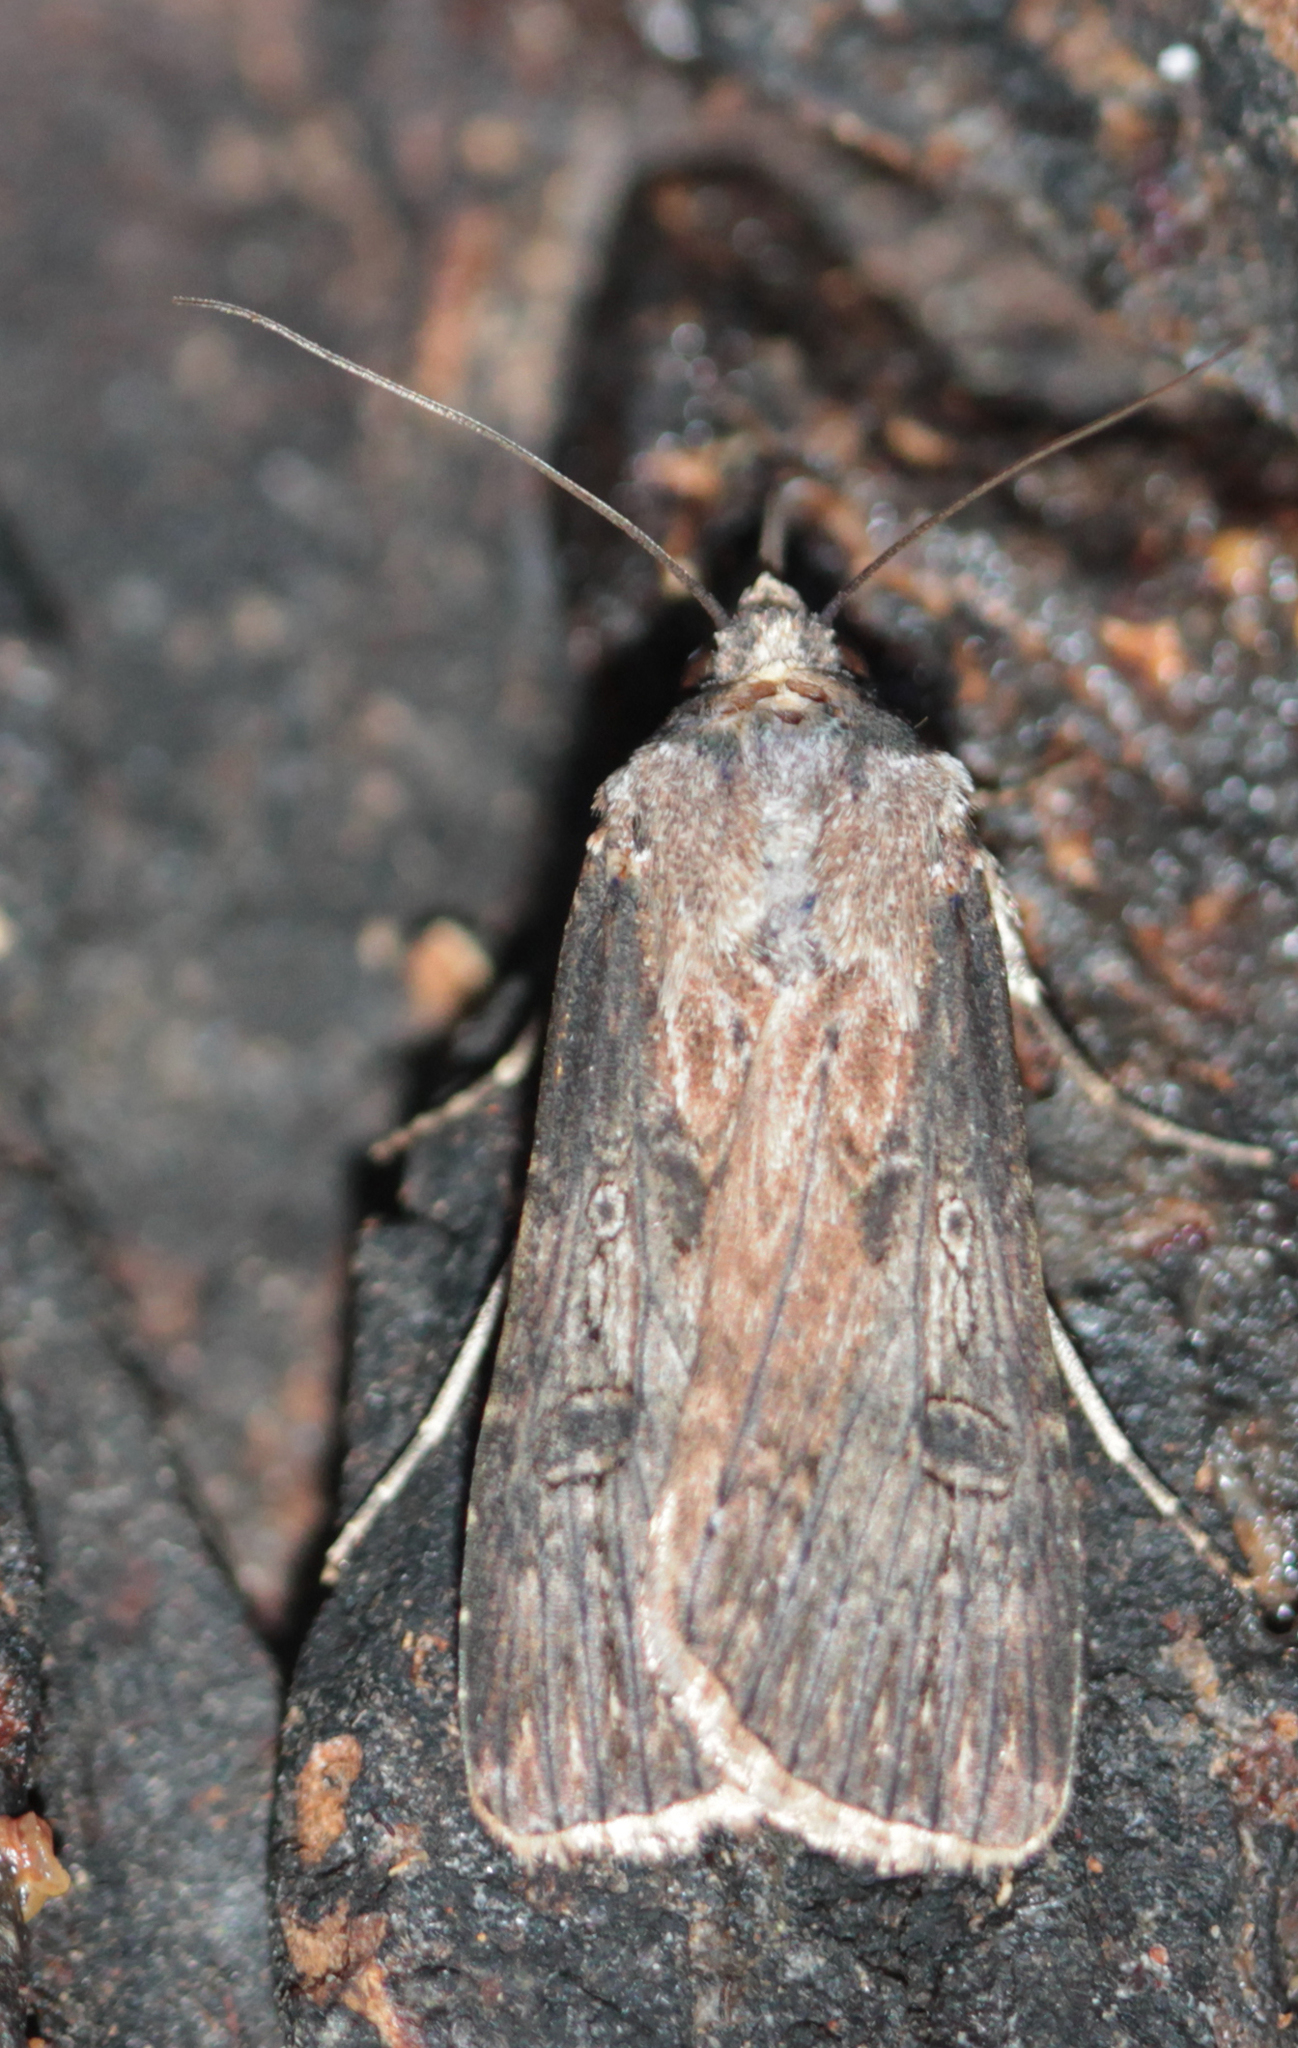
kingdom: Animalia
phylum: Arthropoda
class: Insecta
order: Lepidoptera
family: Noctuidae
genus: Agrotis
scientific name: Agrotis malefida
